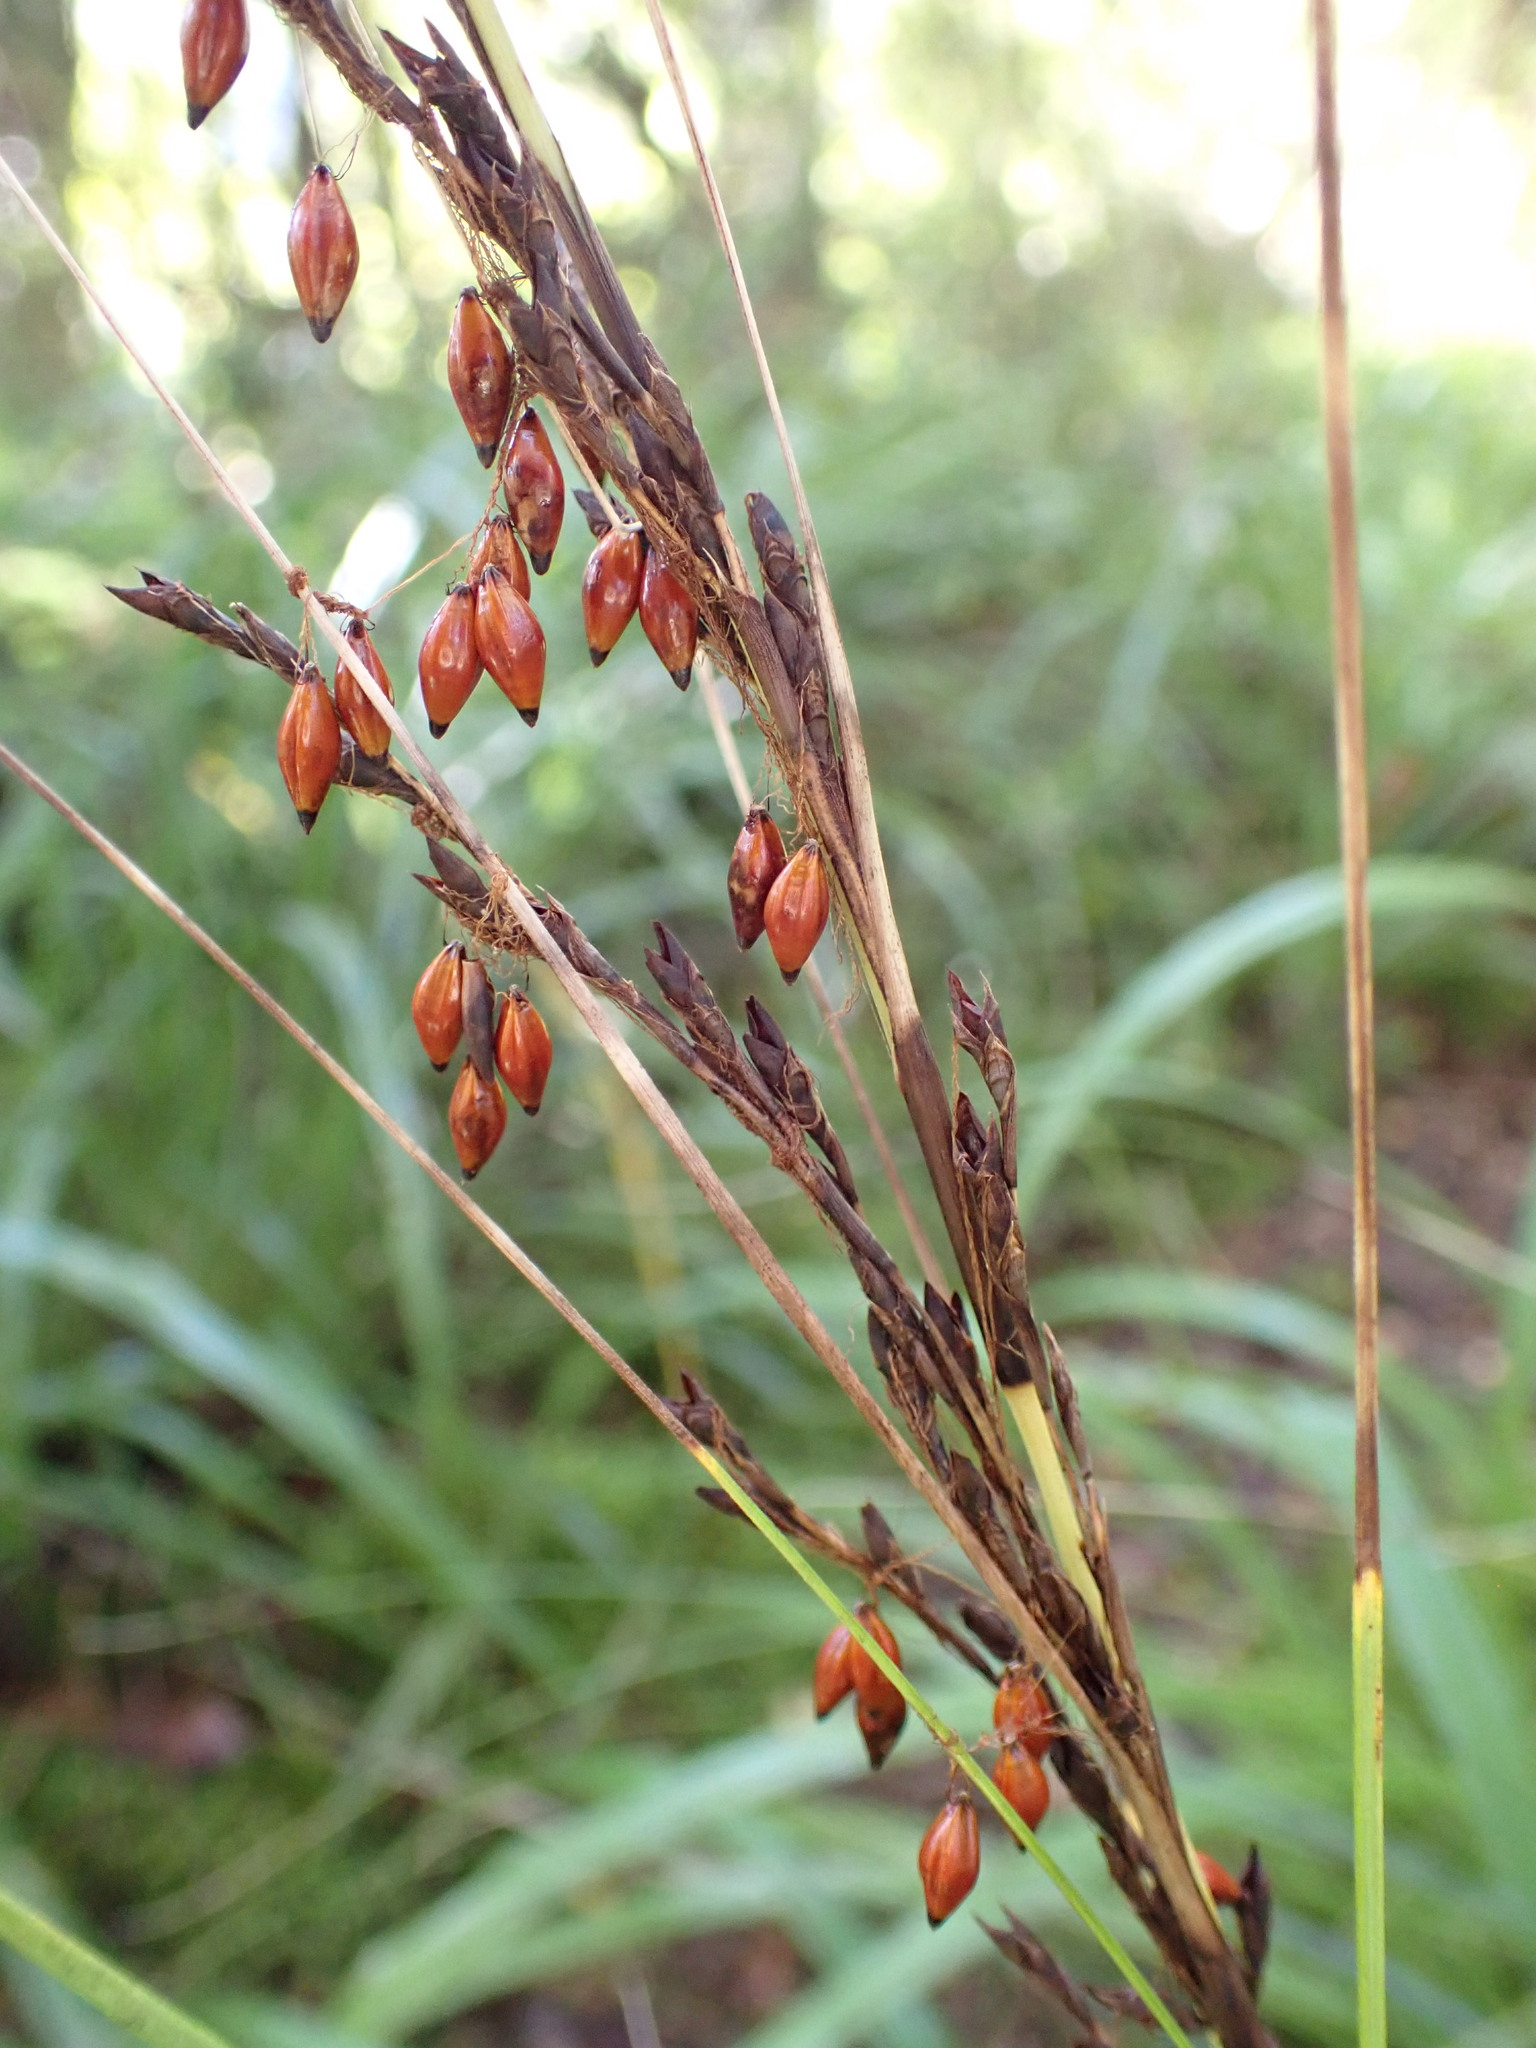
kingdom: Plantae
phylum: Tracheophyta
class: Liliopsida
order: Poales
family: Cyperaceae
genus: Gahnia
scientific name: Gahnia pauciflora
